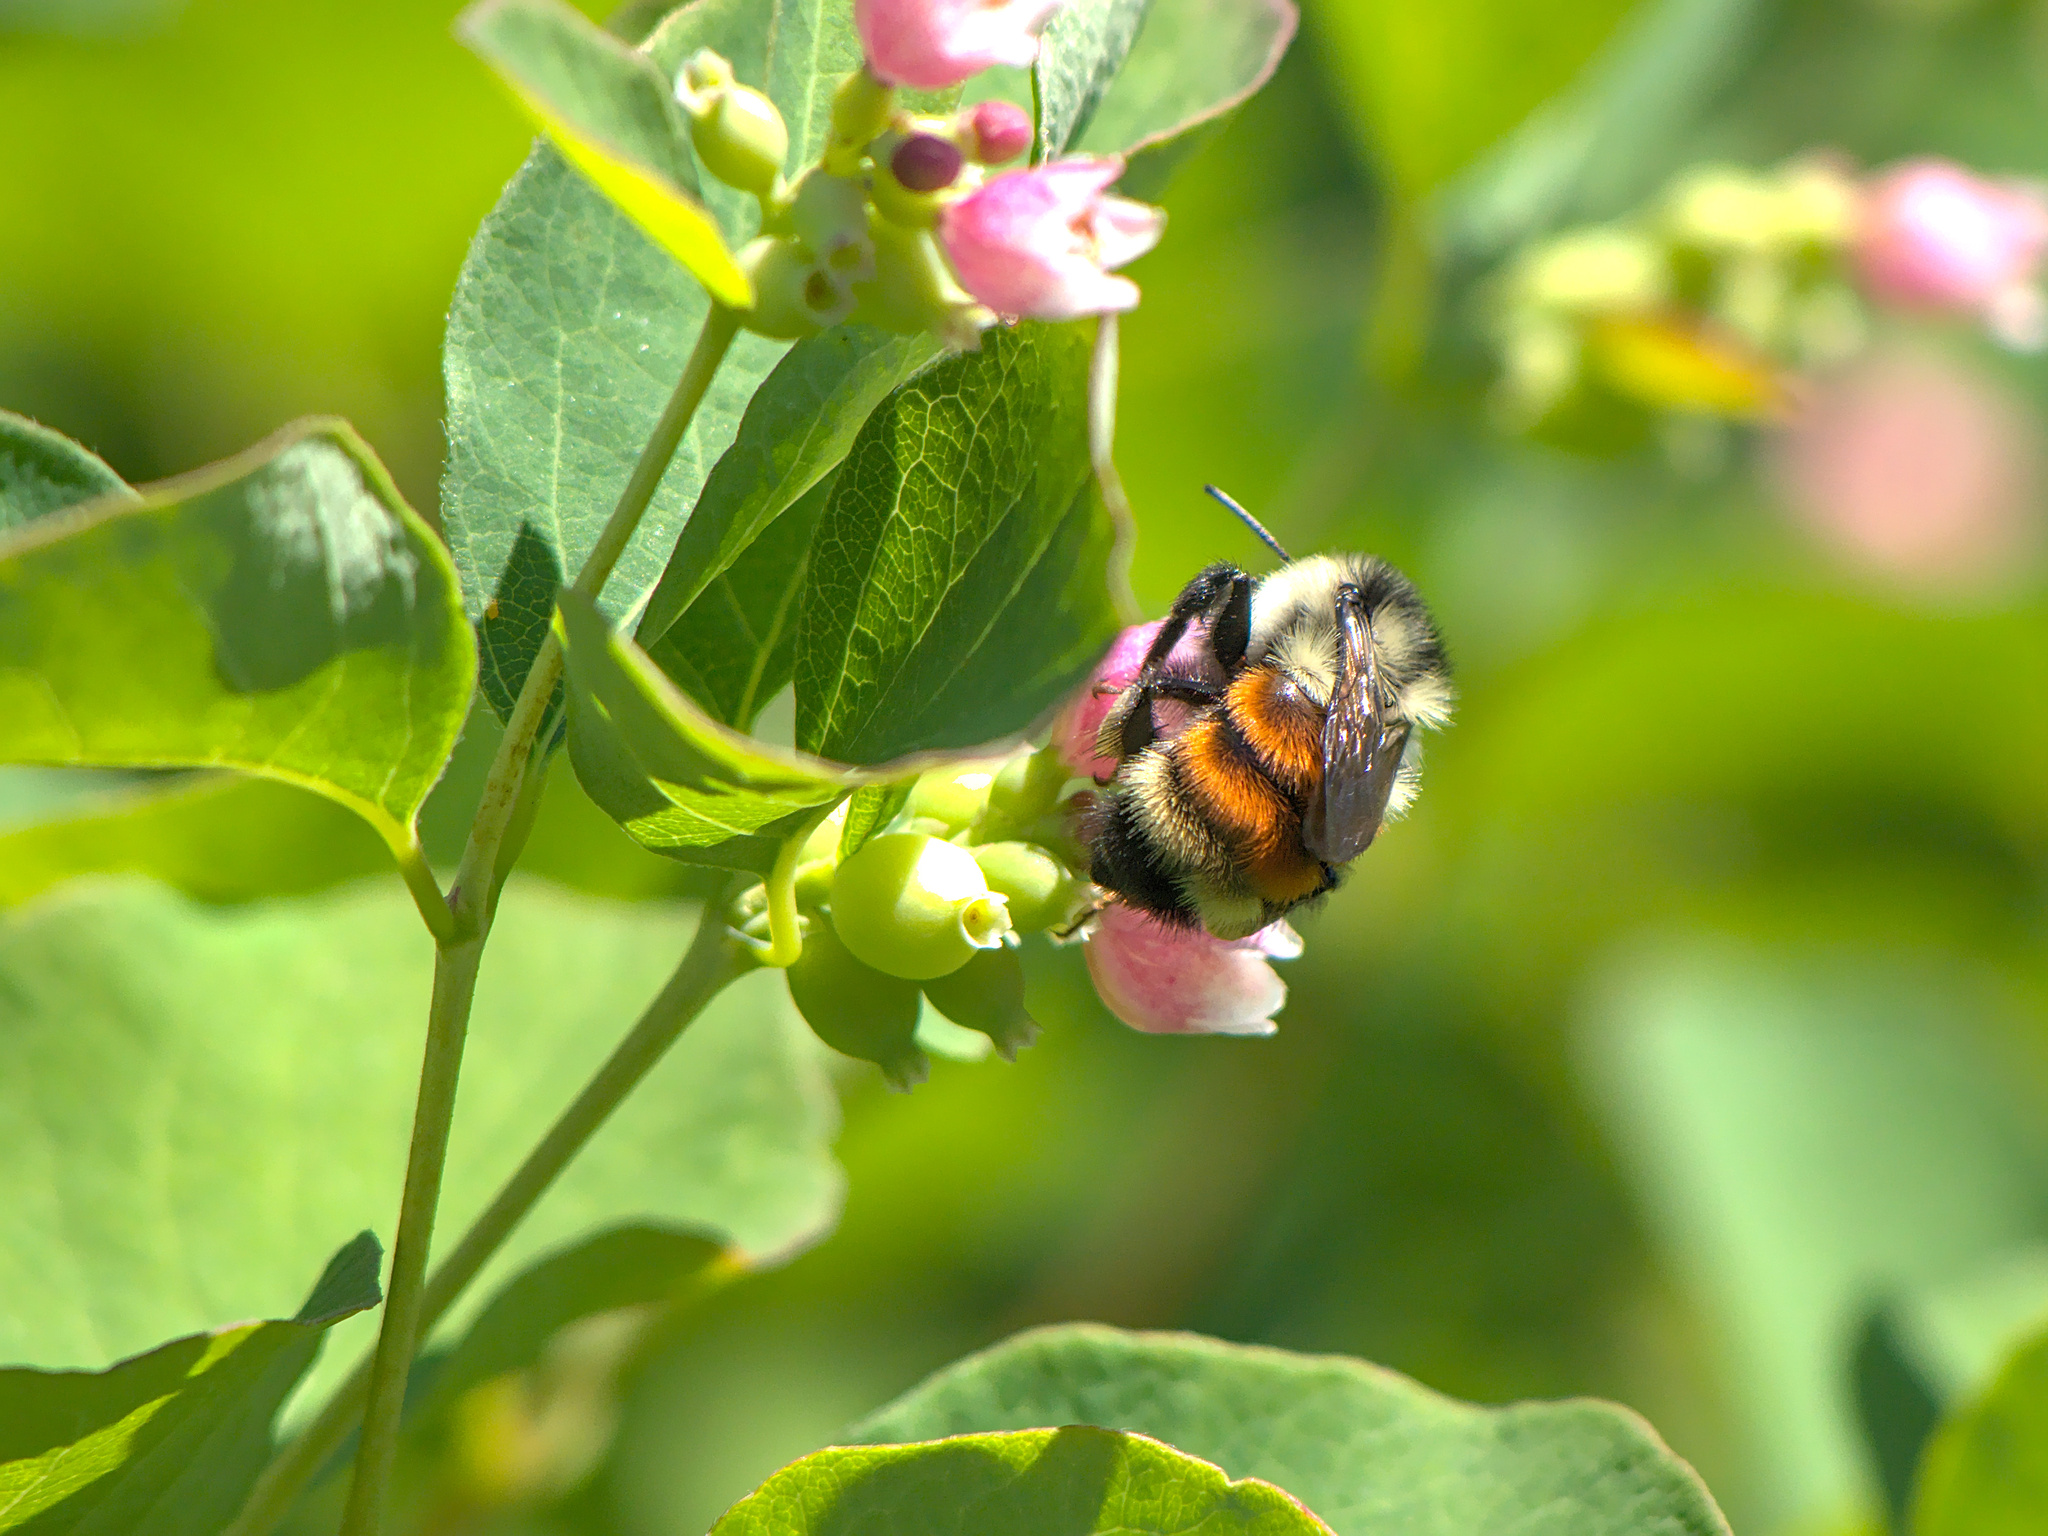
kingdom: Animalia
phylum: Arthropoda
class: Insecta
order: Hymenoptera
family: Apidae
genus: Bombus
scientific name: Bombus ternarius
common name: Tri-colored bumble bee
